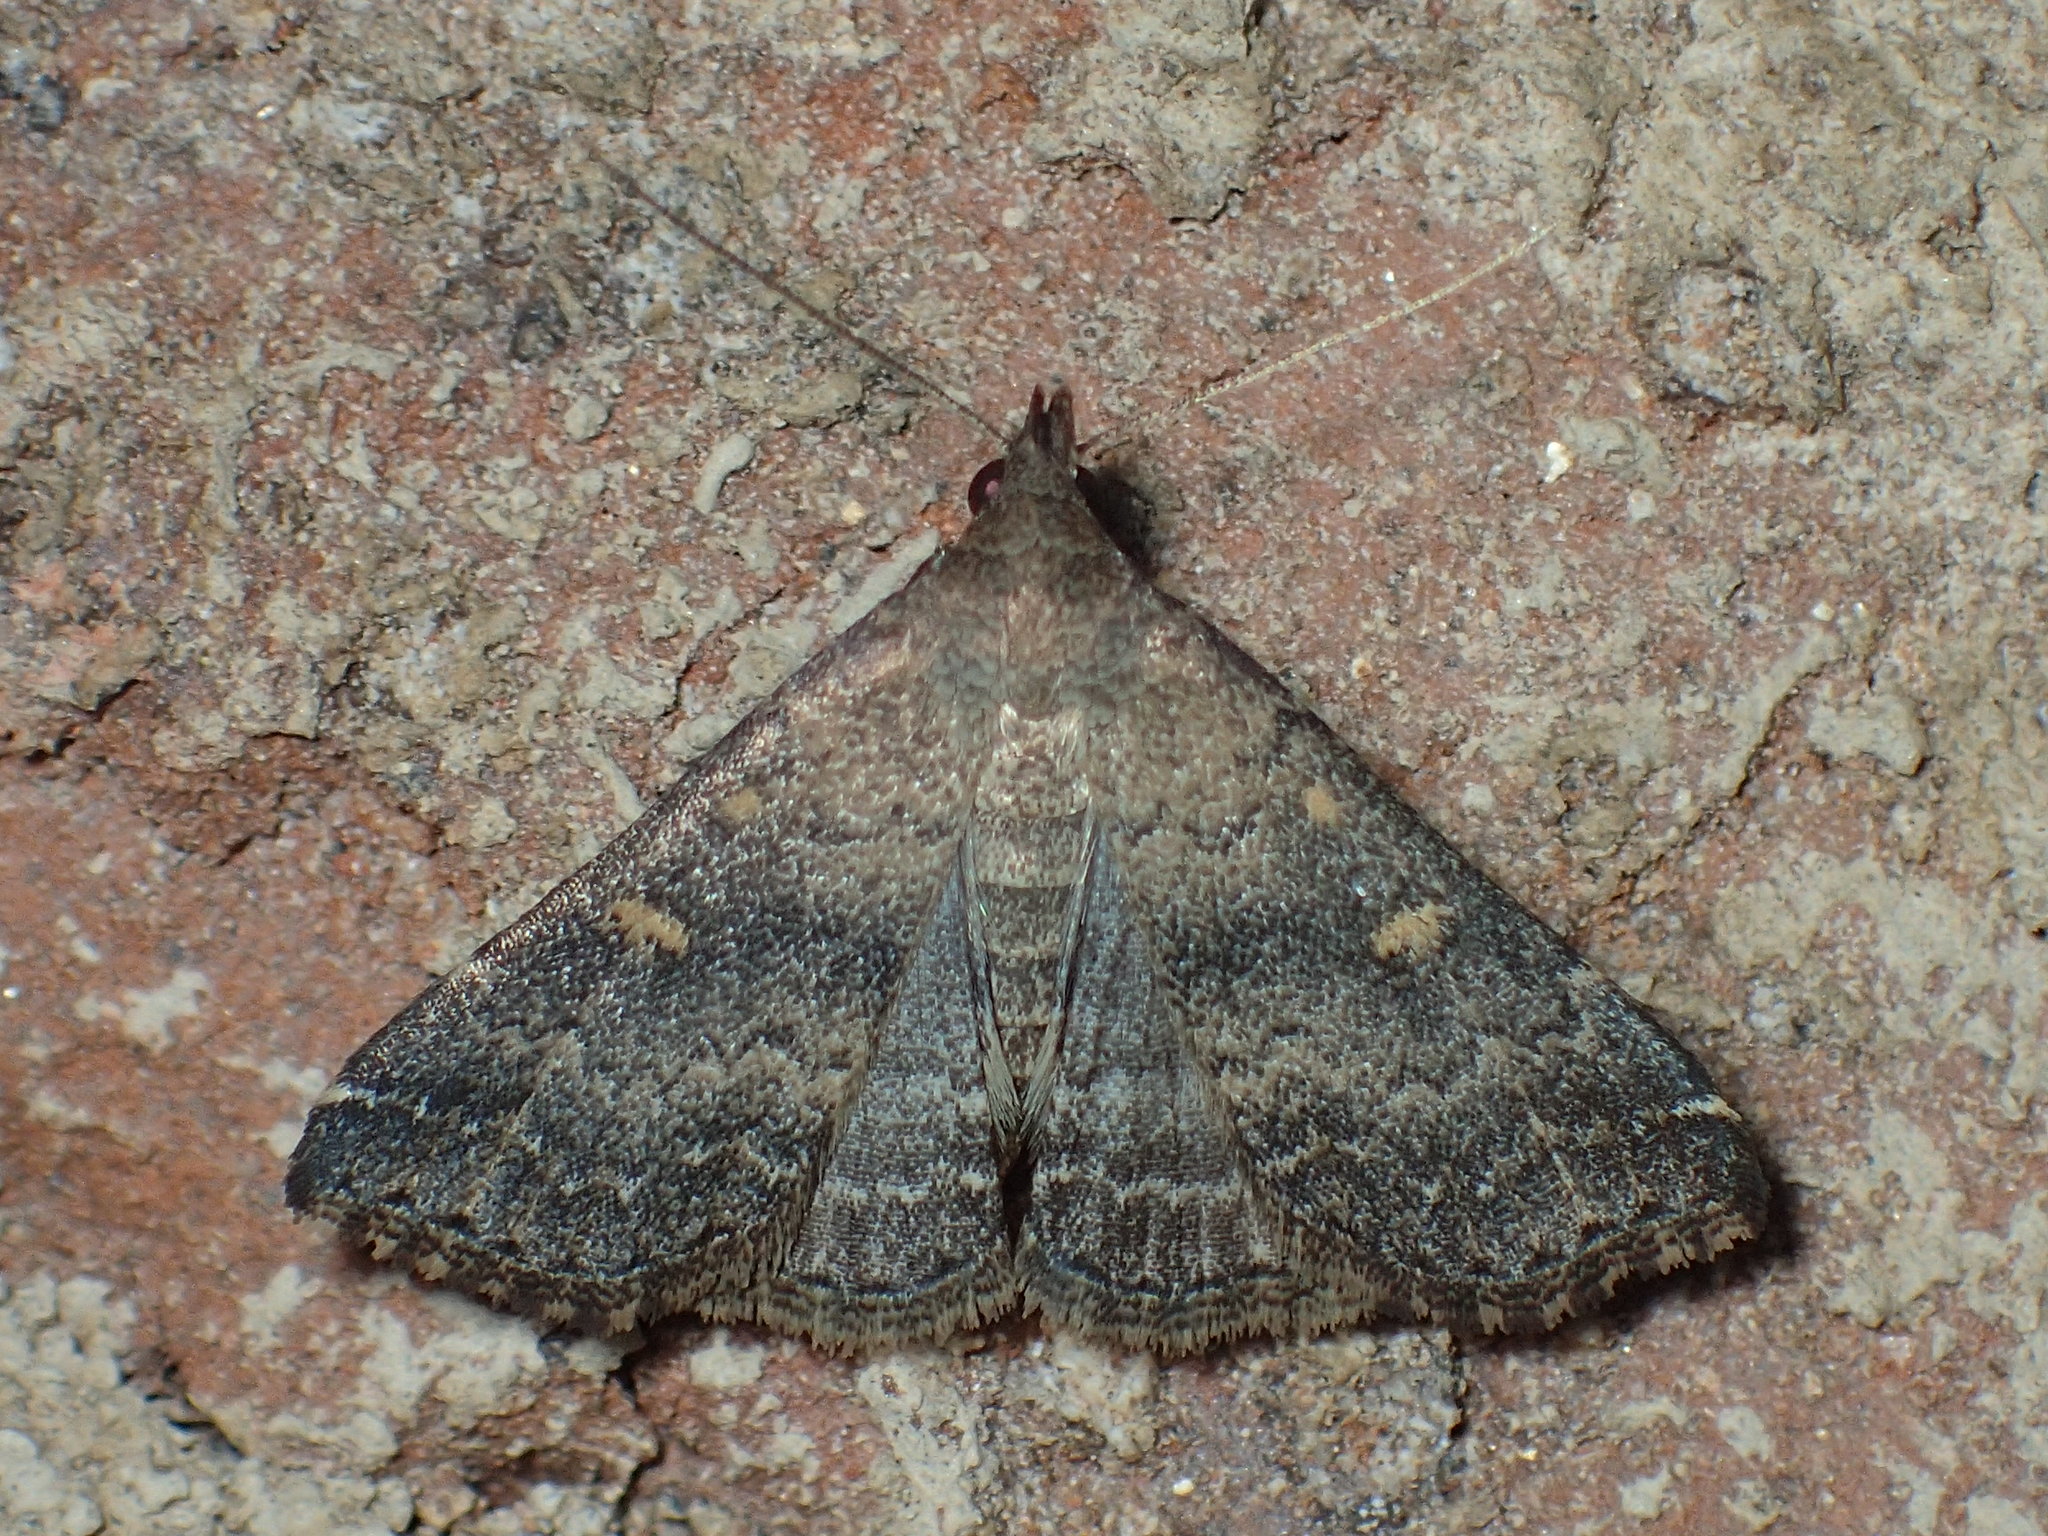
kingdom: Animalia
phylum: Arthropoda
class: Insecta
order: Lepidoptera
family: Erebidae
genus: Tetanolita
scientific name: Tetanolita floridana
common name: Florida tetanolita moth
